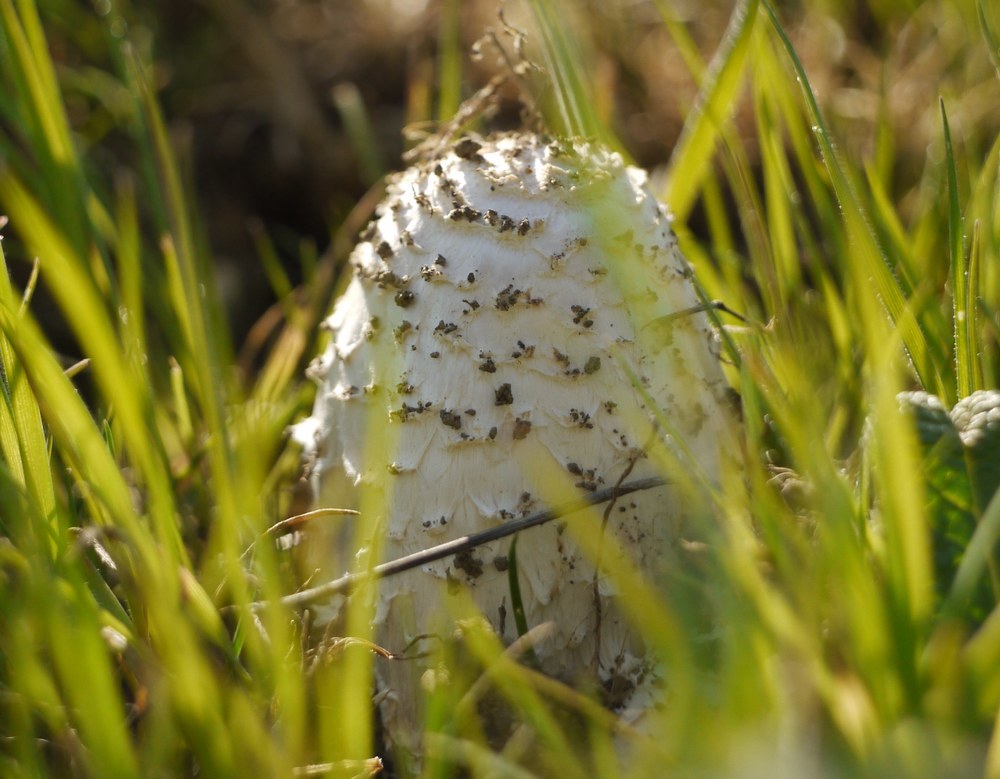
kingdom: Fungi
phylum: Basidiomycota
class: Agaricomycetes
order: Agaricales
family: Agaricaceae
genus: Coprinus
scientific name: Coprinus comatus
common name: Lawyer's wig
